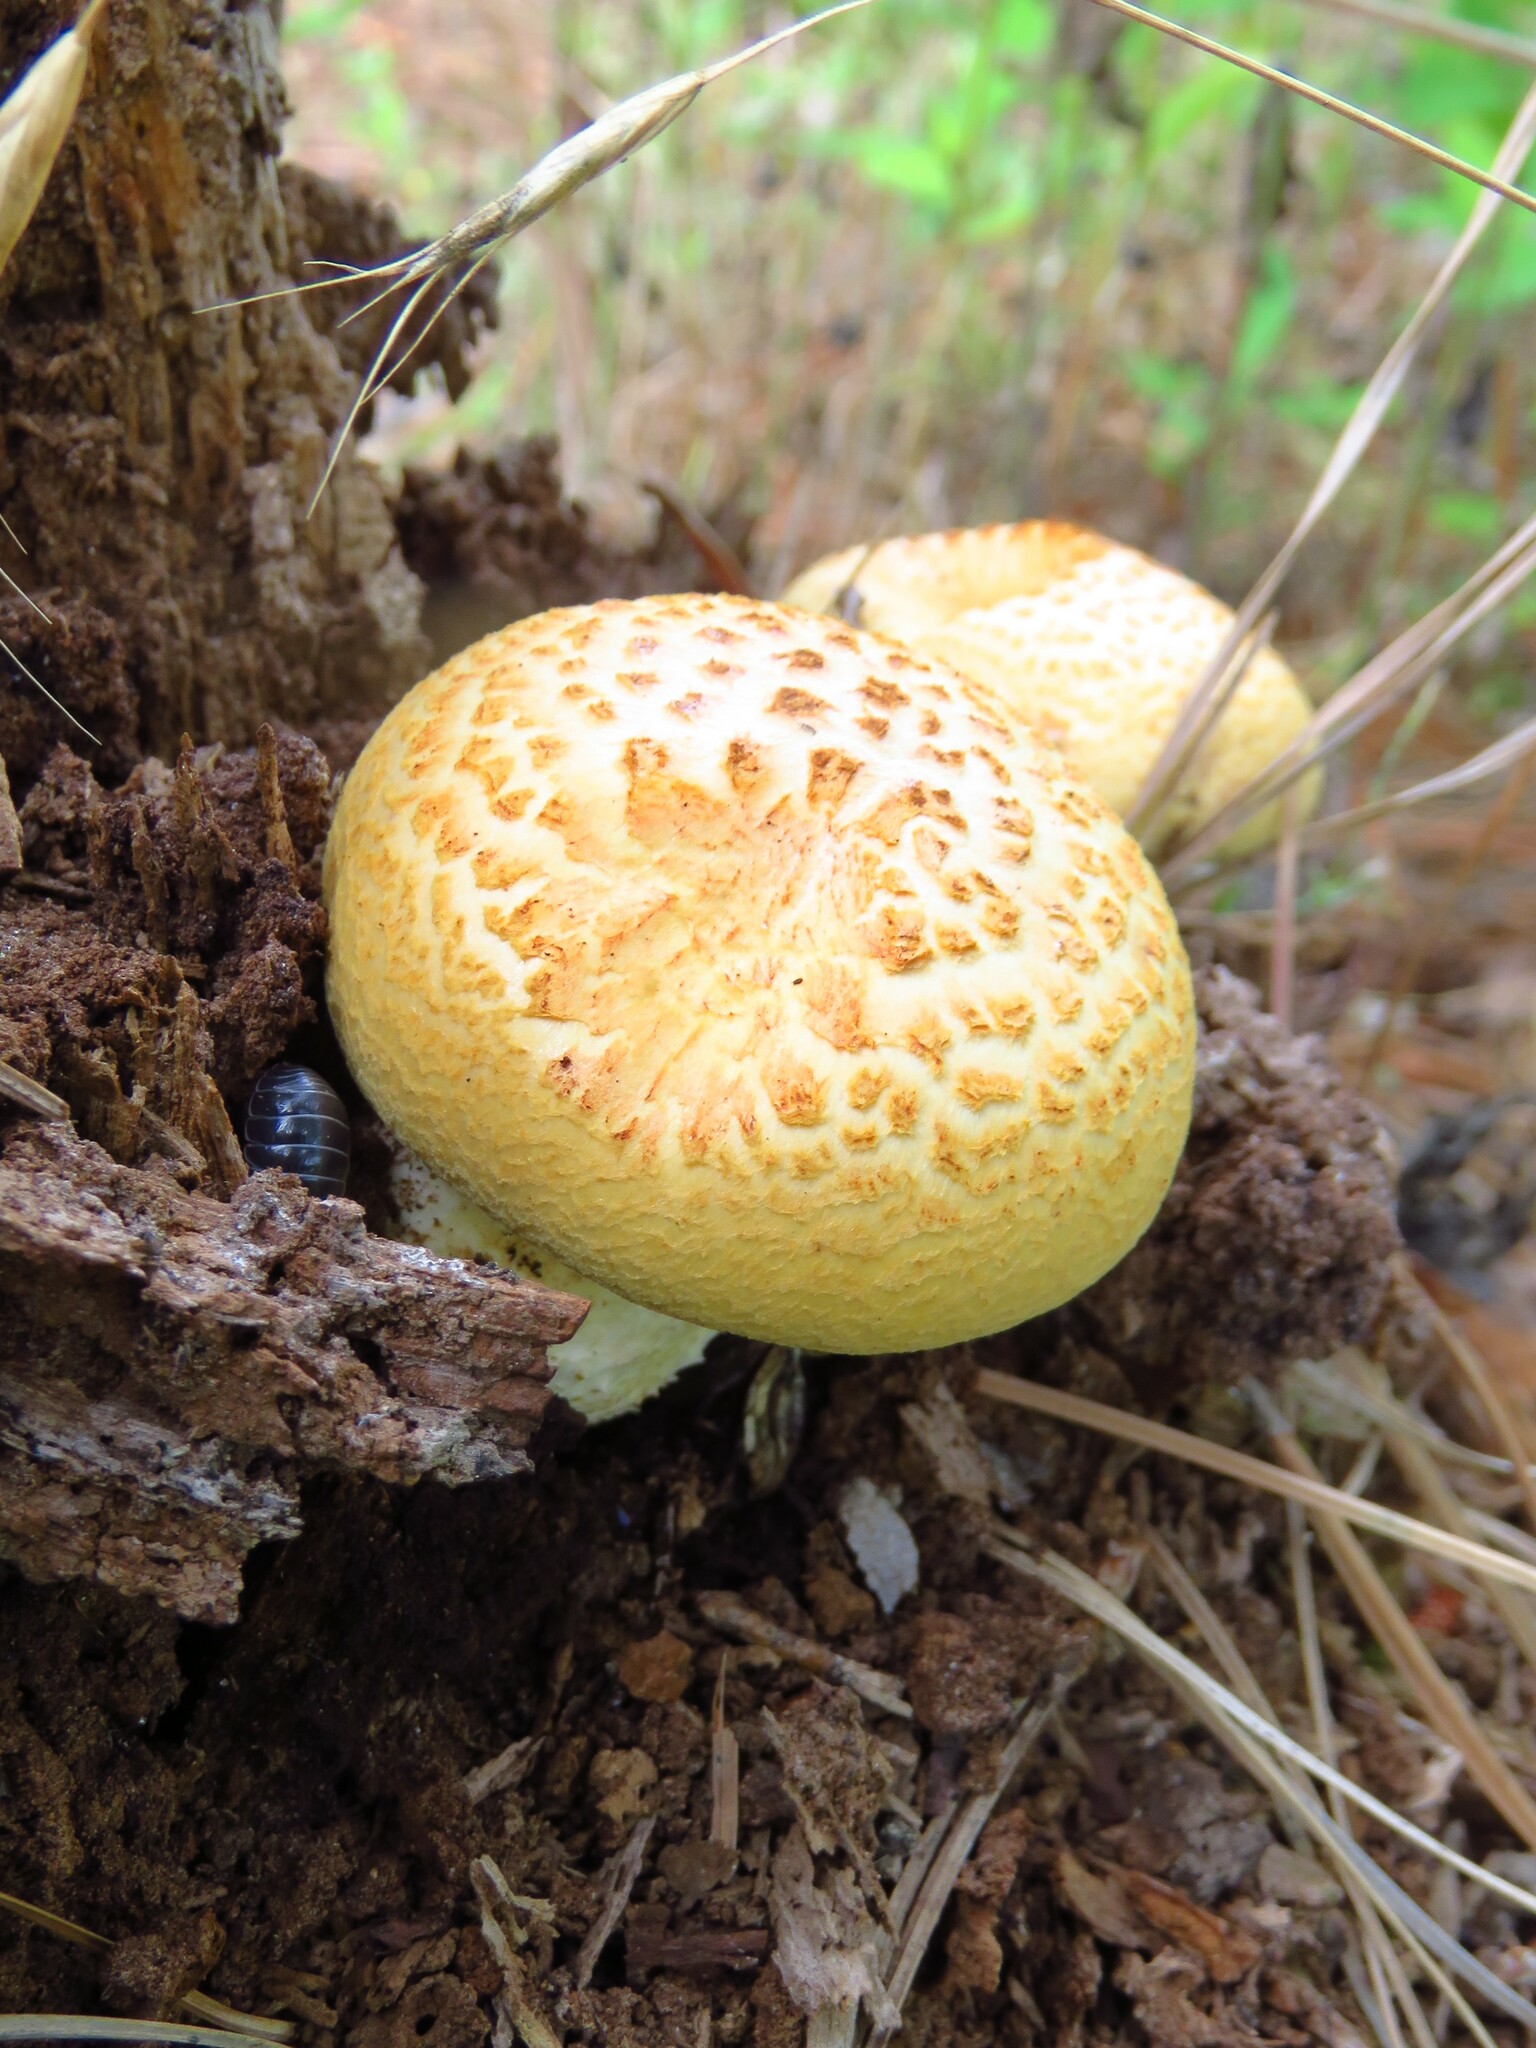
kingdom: Fungi
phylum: Basidiomycota
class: Agaricomycetes
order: Gloeophyllales
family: Gloeophyllaceae
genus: Neolentinus
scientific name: Neolentinus lepideus
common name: Scaly sawgill
